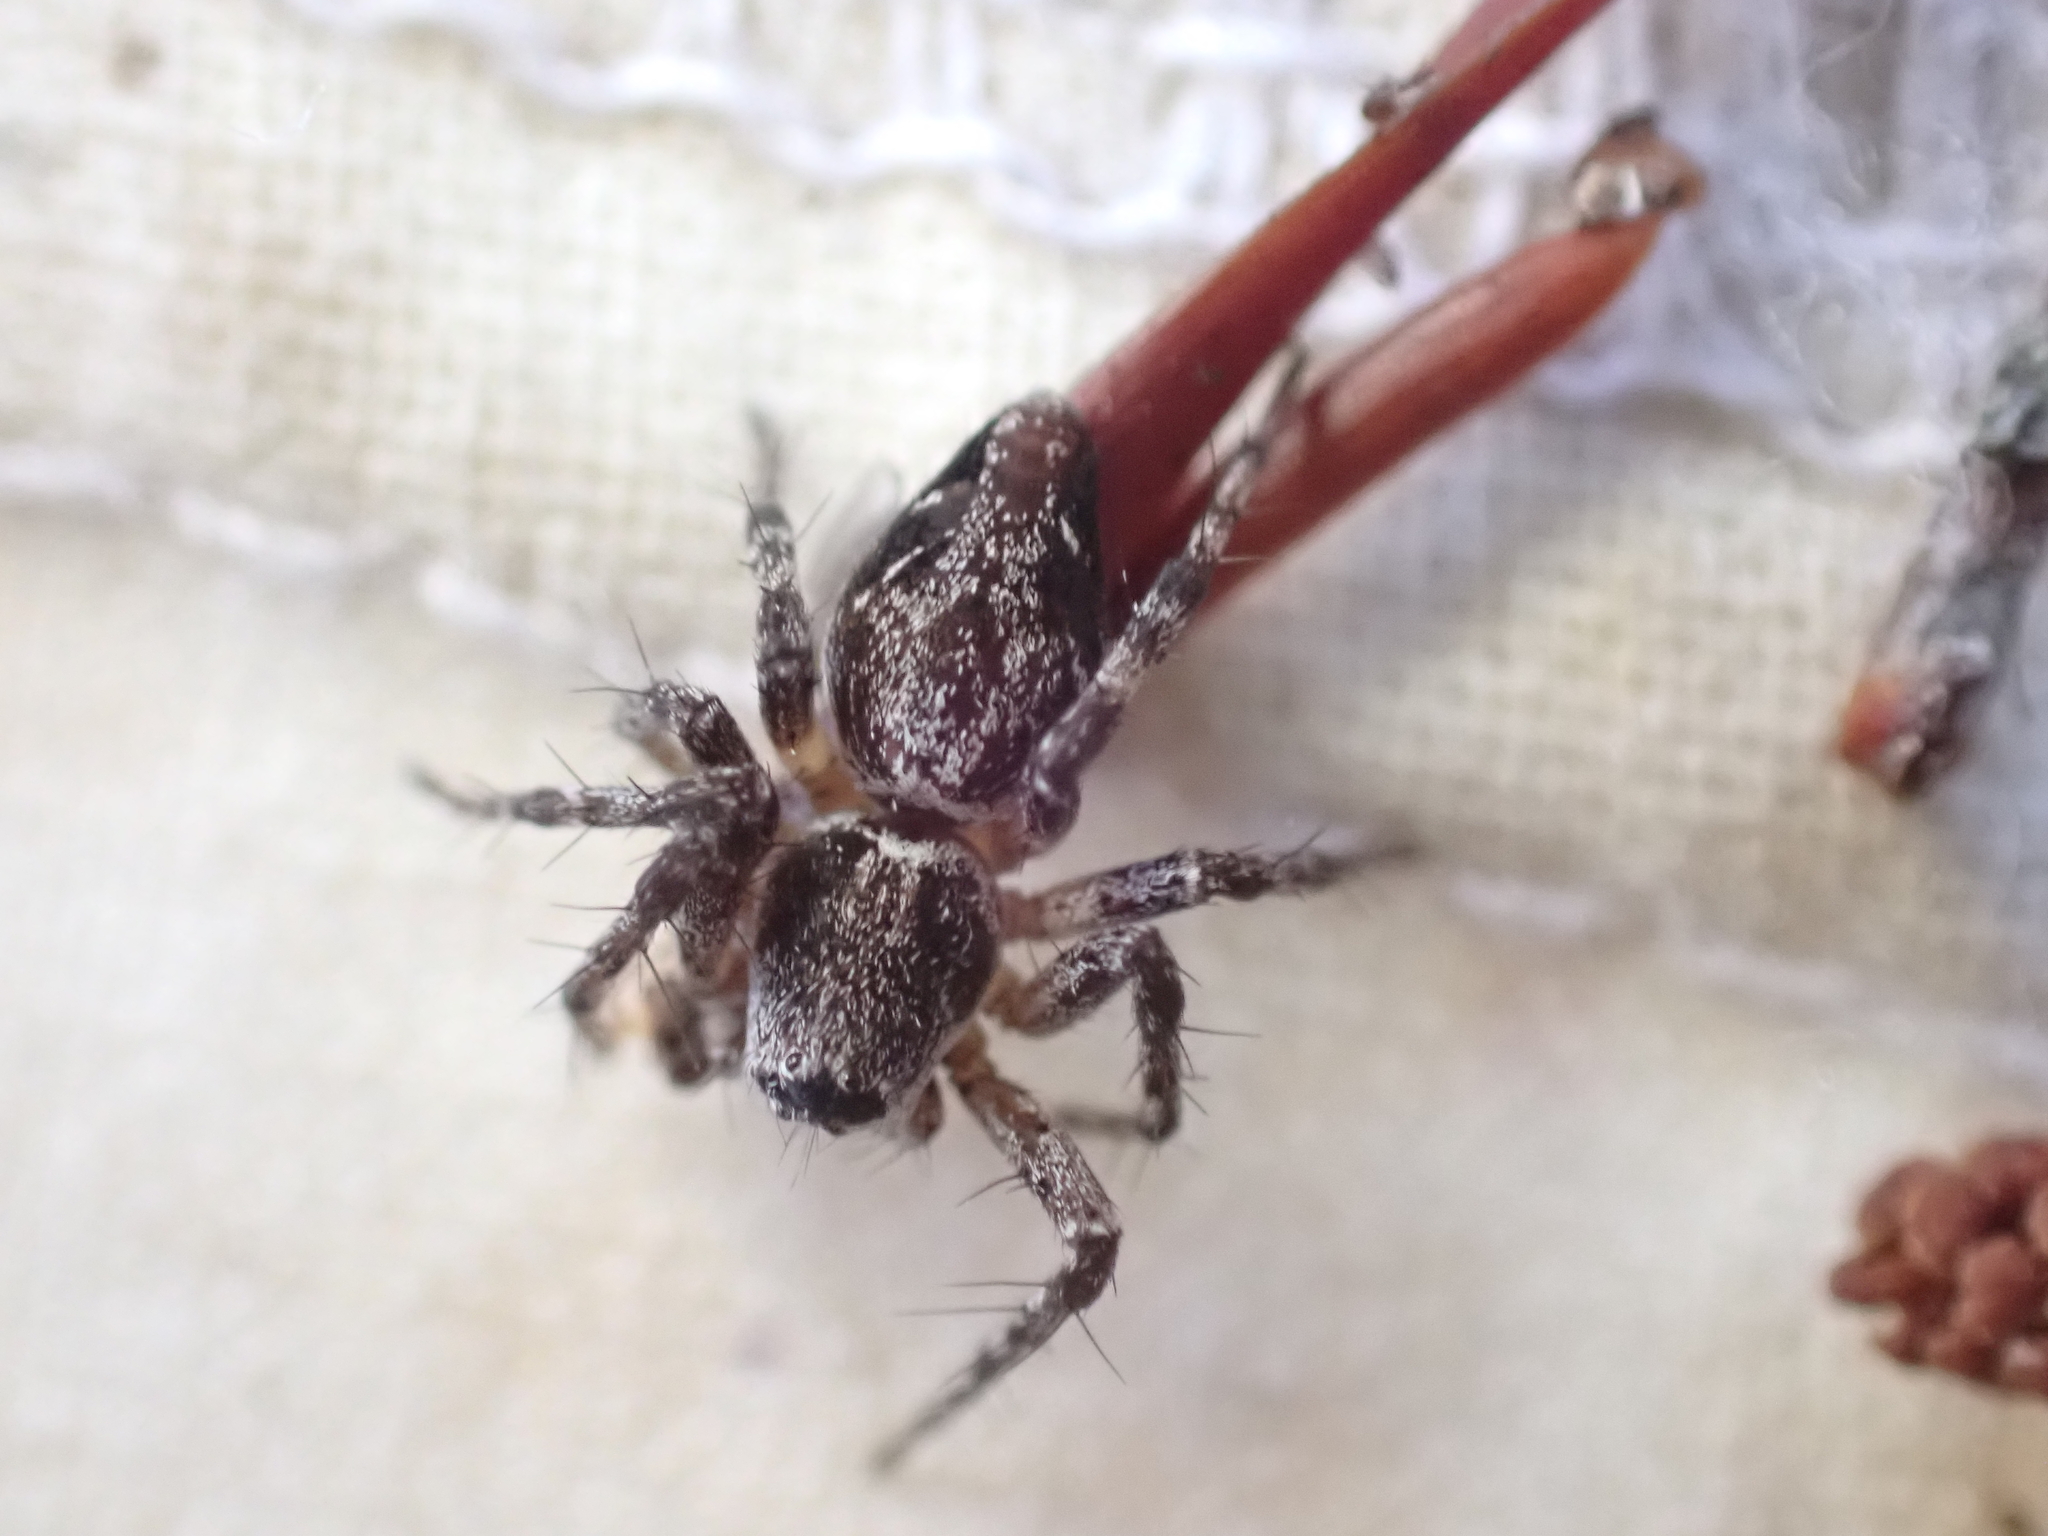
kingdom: Animalia
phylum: Arthropoda
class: Arachnida
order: Araneae
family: Oxyopidae
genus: Oxyopes
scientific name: Oxyopes scalaris
